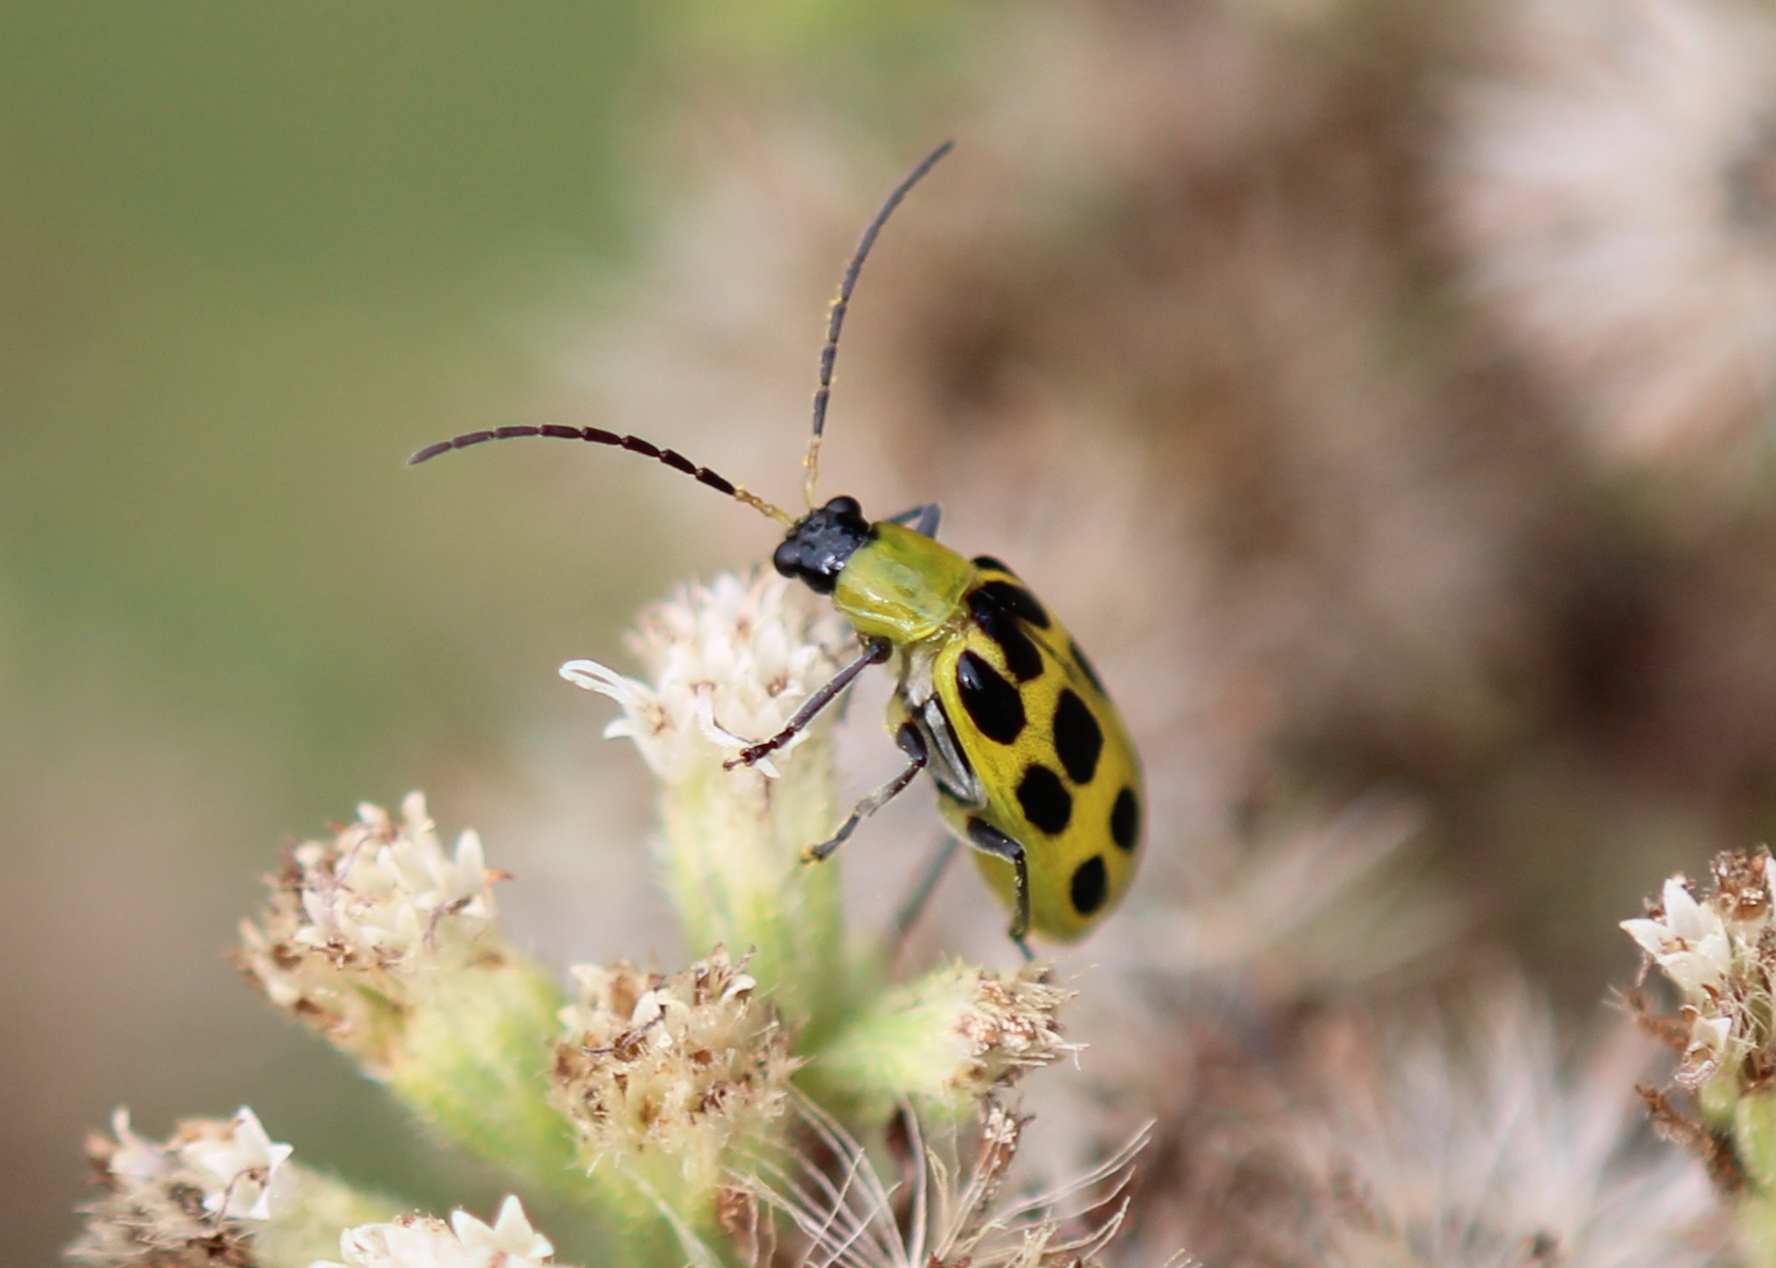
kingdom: Animalia
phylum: Arthropoda
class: Insecta
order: Coleoptera
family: Chrysomelidae
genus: Diabrotica
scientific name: Diabrotica undecimpunctata
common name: Spotted cucumber beetle
